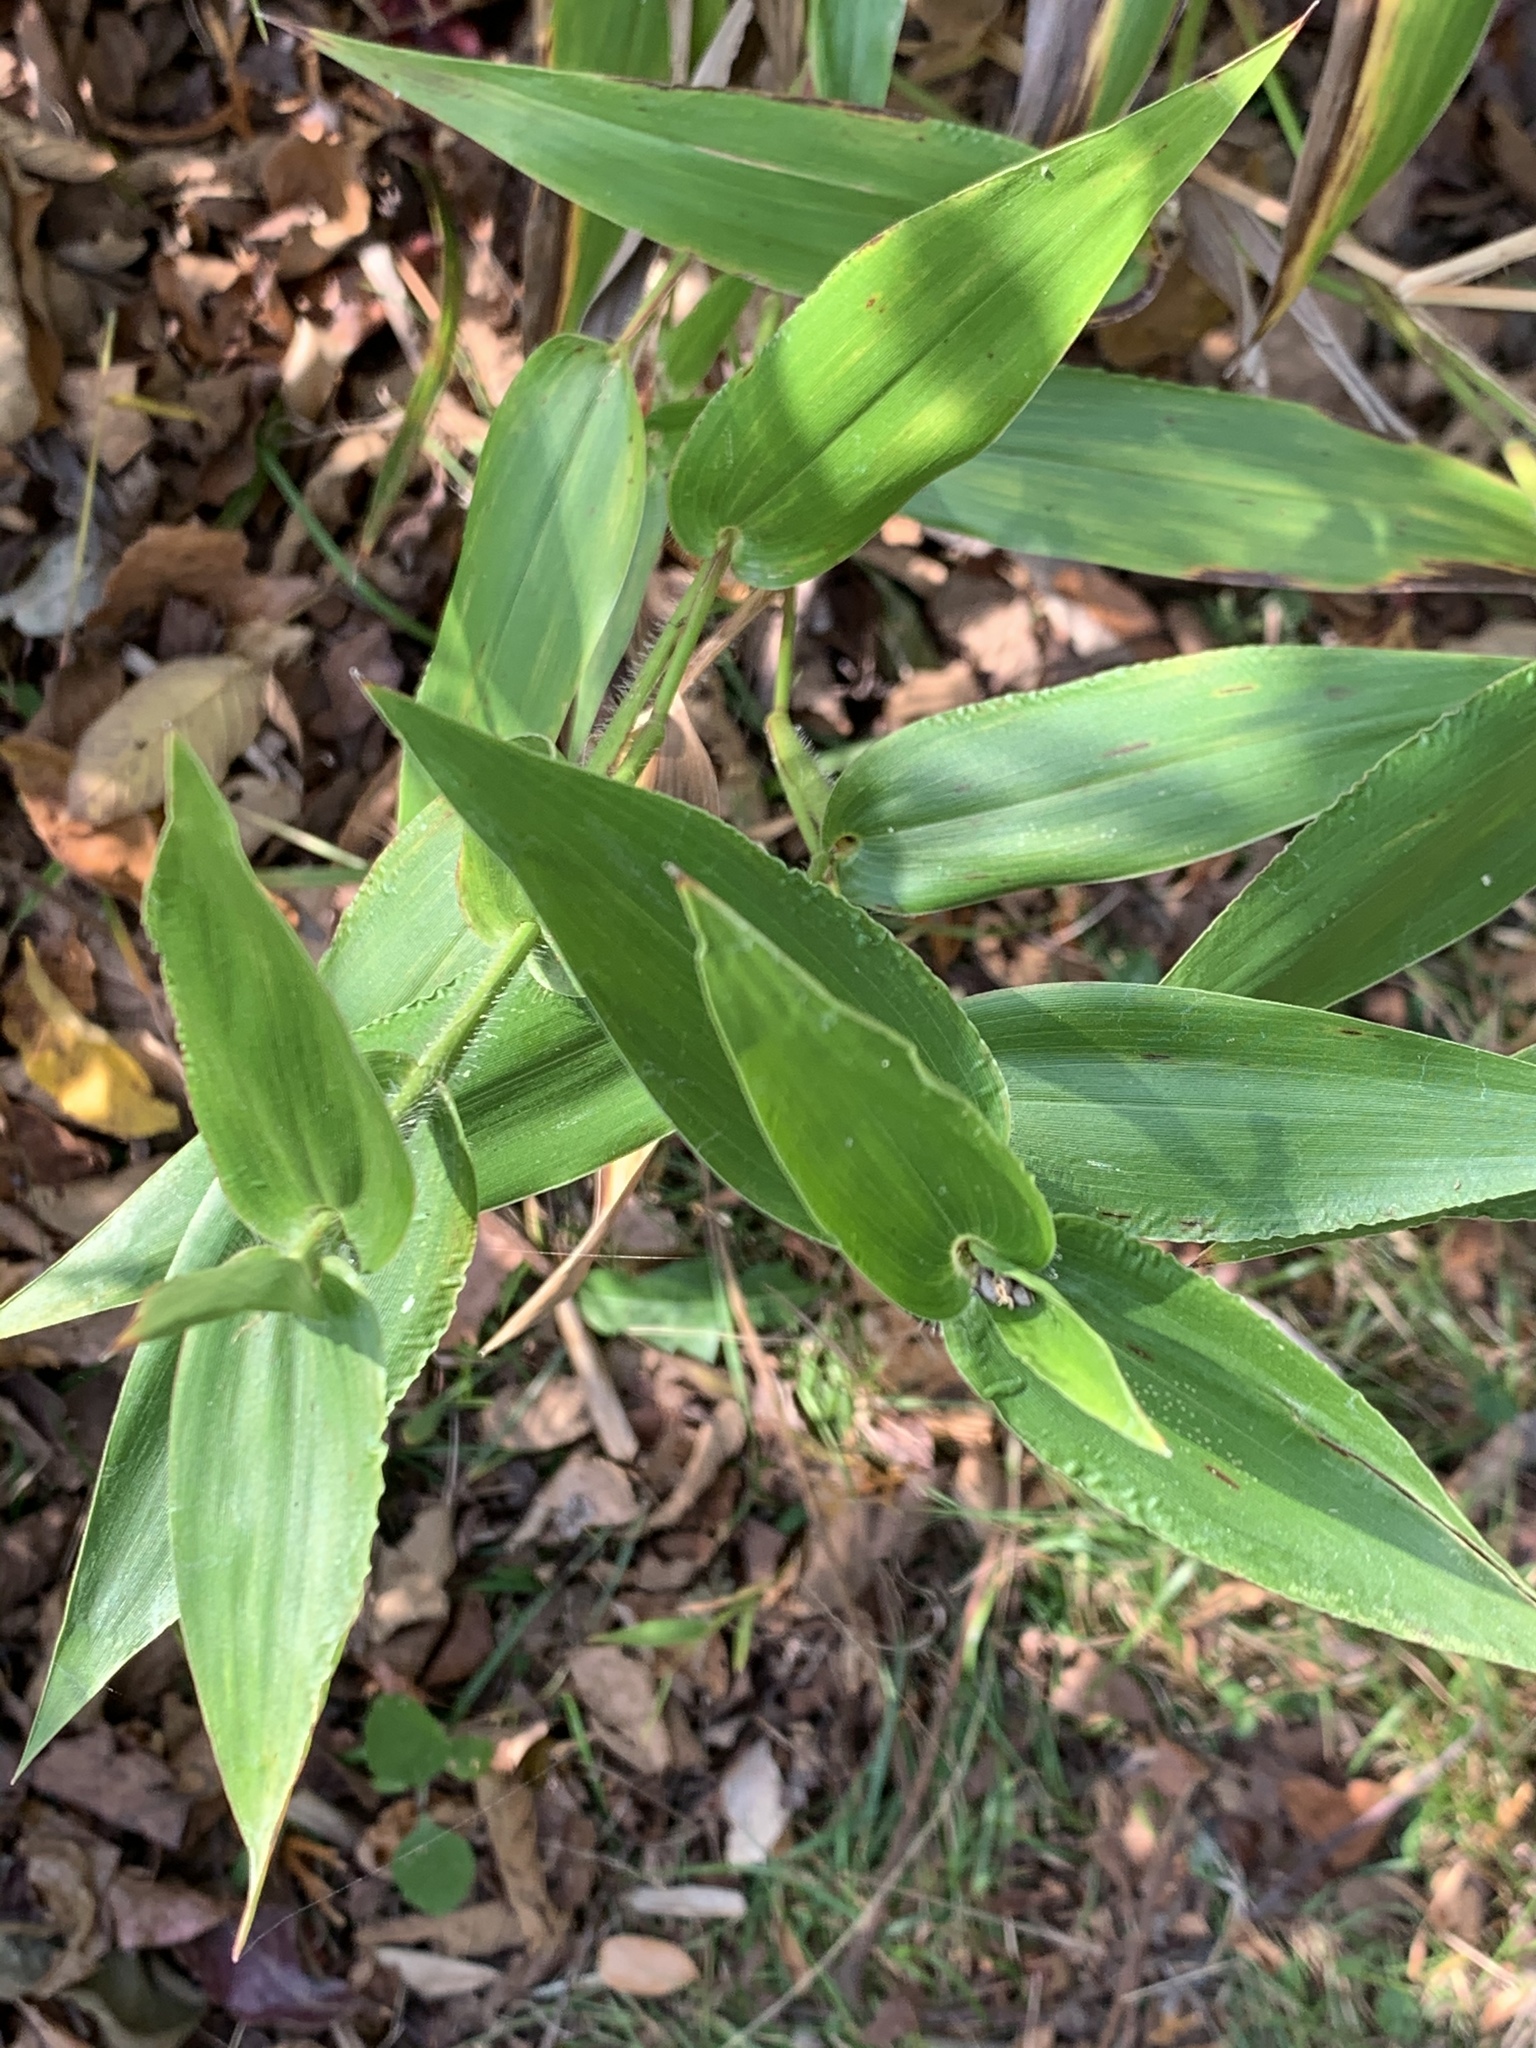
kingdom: Plantae
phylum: Tracheophyta
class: Liliopsida
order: Poales
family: Poaceae
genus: Dichanthelium
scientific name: Dichanthelium clandestinum
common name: Deer-tongue grass
